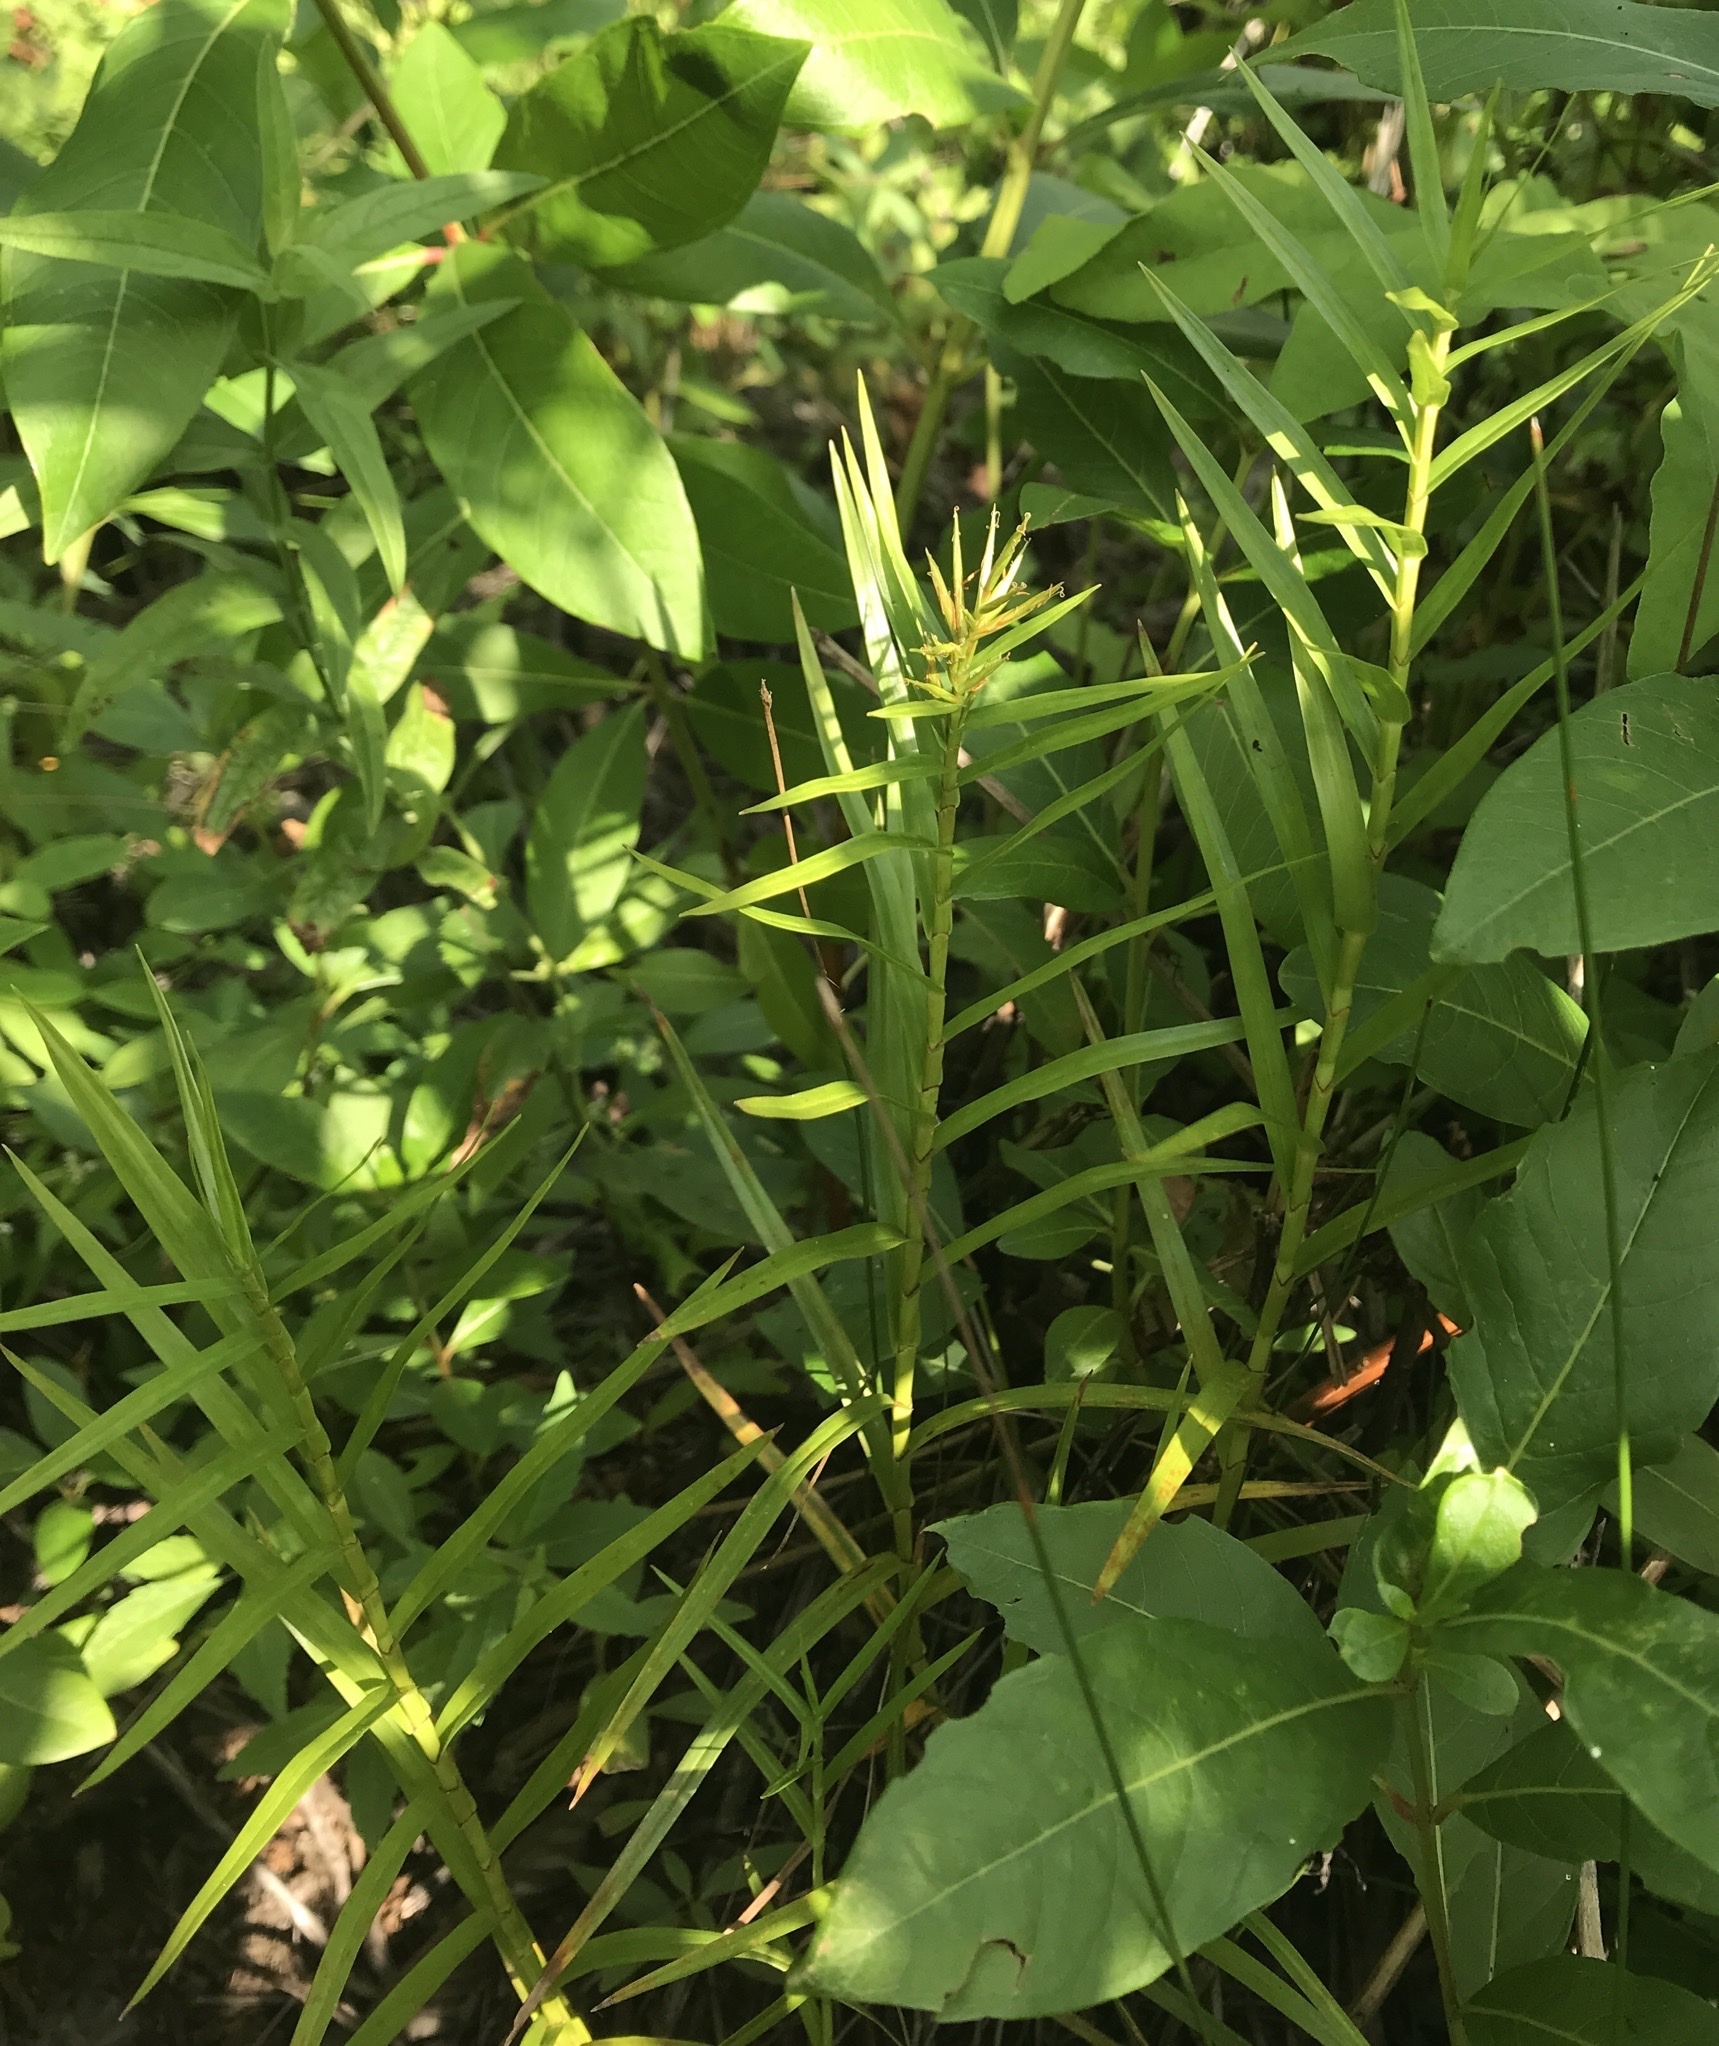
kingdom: Plantae
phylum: Tracheophyta
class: Liliopsida
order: Poales
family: Cyperaceae
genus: Dulichium
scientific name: Dulichium arundinaceum
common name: Three-way sedge
